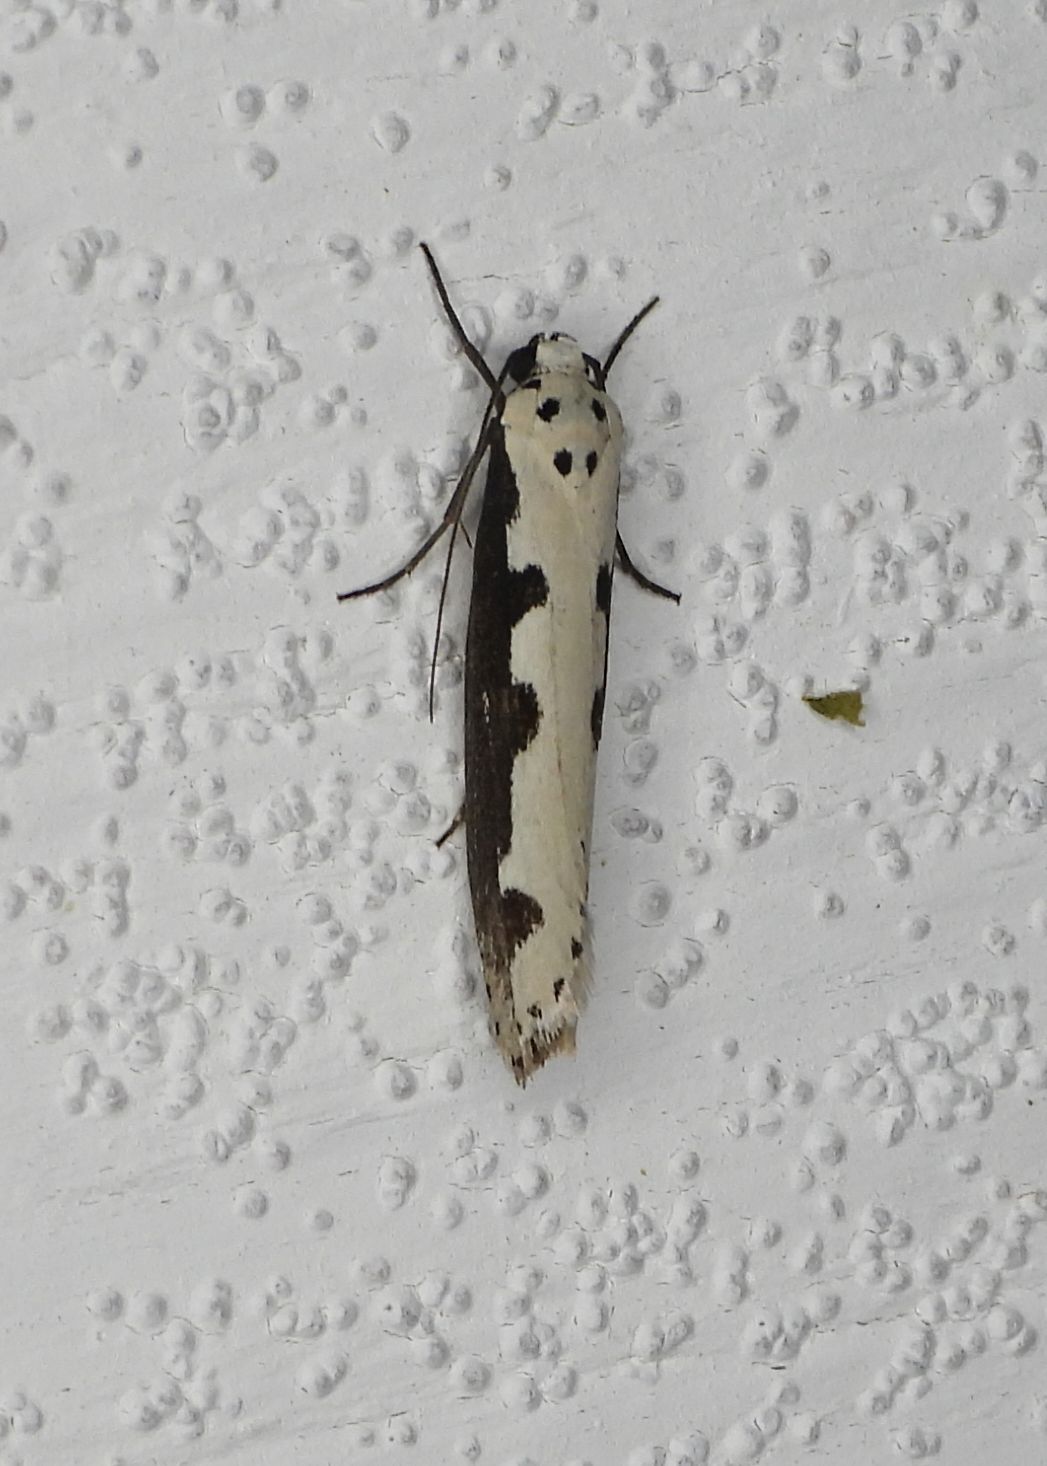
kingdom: Animalia
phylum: Arthropoda
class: Insecta
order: Lepidoptera
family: Ethmiidae
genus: Ethmia
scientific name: Ethmia bipunctella
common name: Bordered ermel
